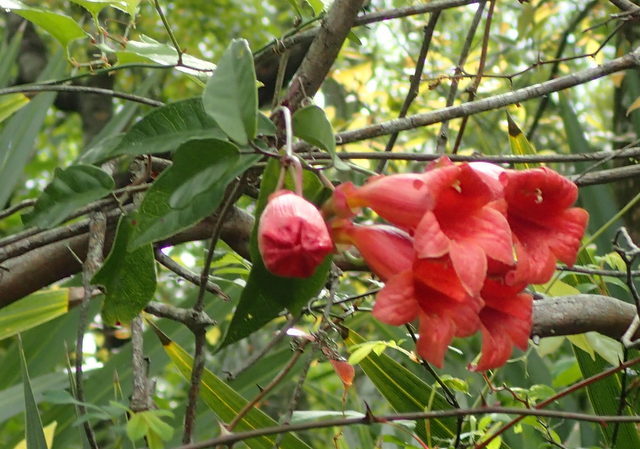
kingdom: Plantae
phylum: Tracheophyta
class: Magnoliopsida
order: Lamiales
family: Bignoniaceae
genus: Bignonia
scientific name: Bignonia capreolata
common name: Crossvine
